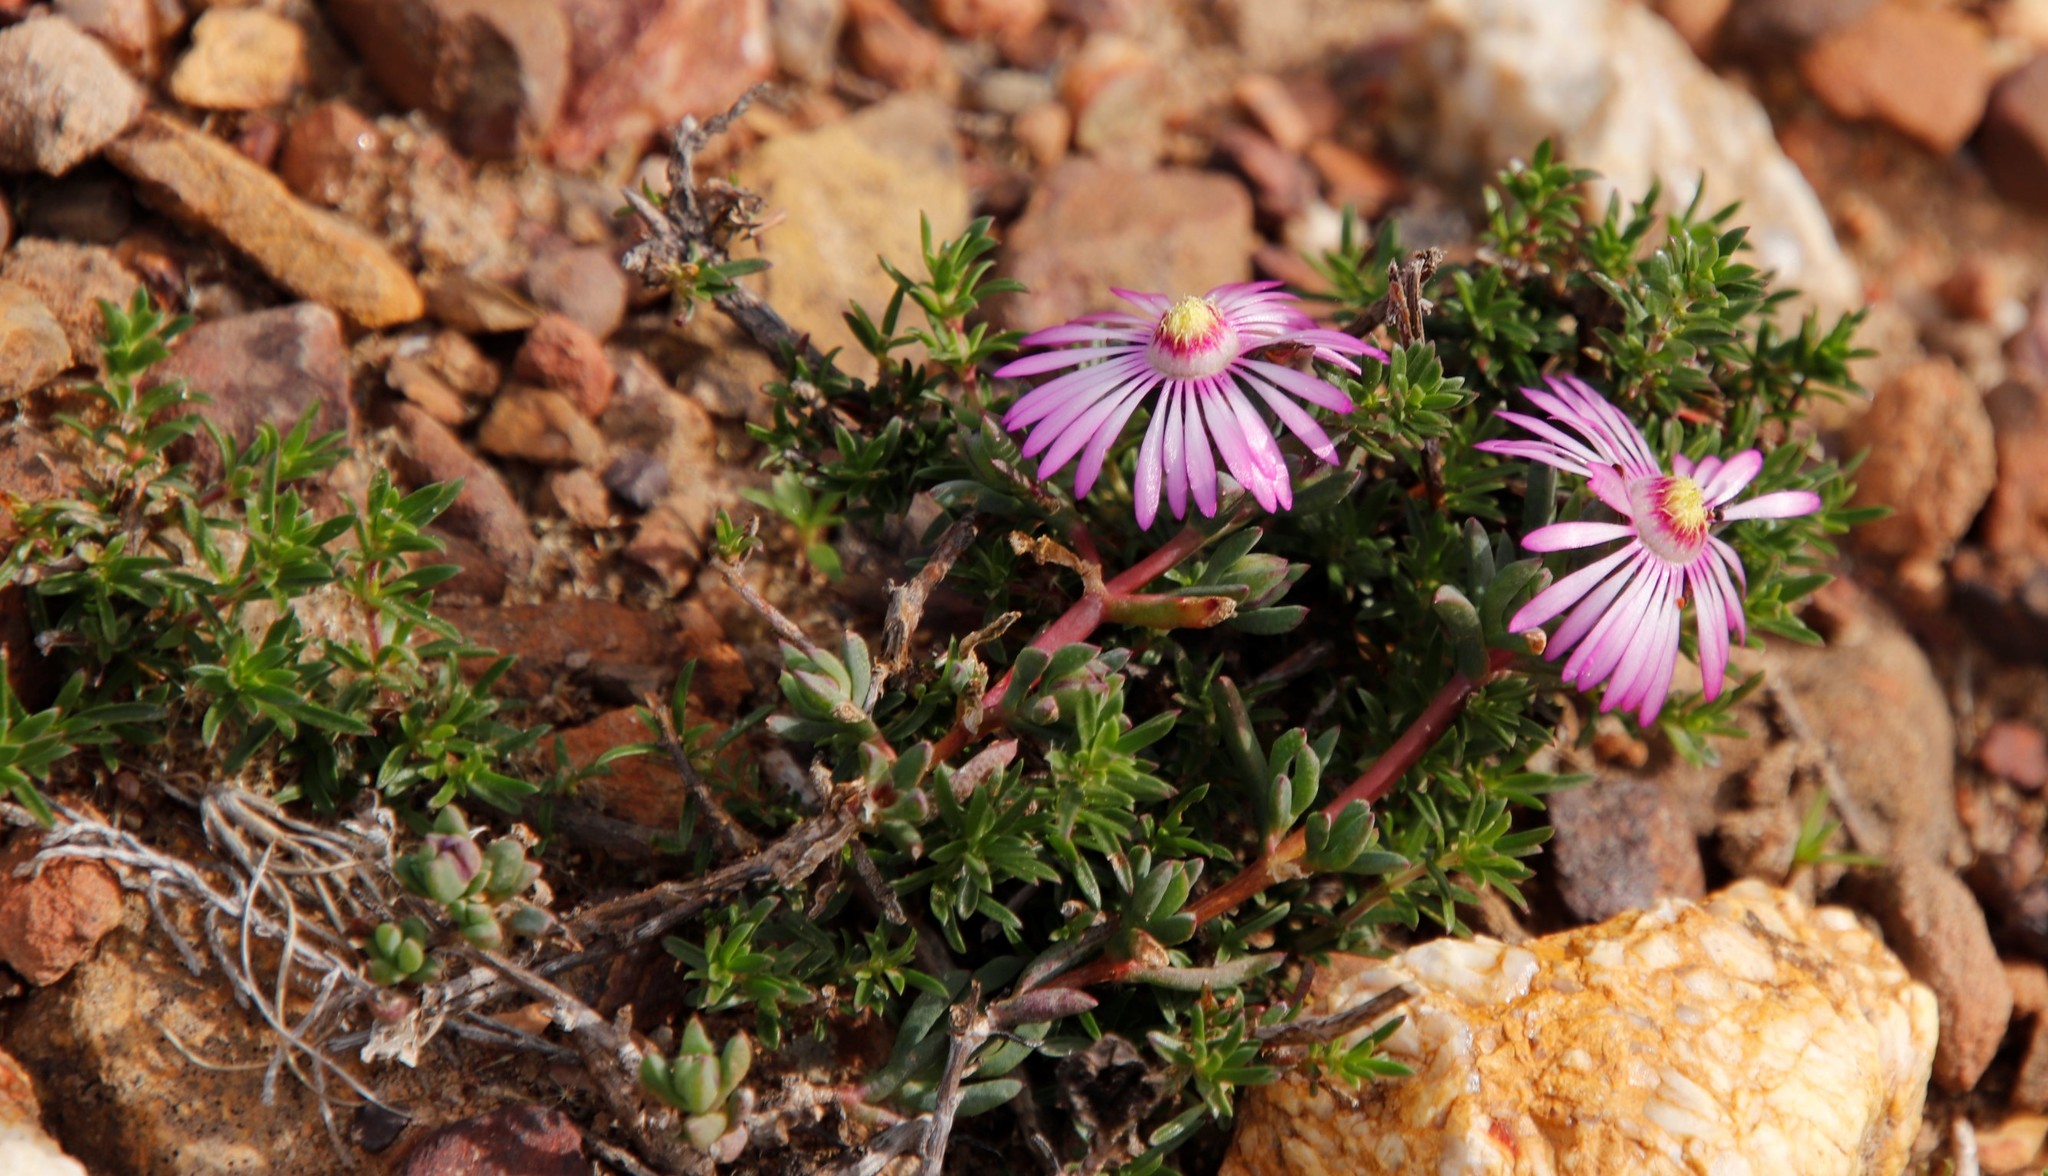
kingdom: Plantae
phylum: Tracheophyta
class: Magnoliopsida
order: Caryophyllales
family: Aizoaceae
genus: Lampranthus
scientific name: Lampranthus elegans
